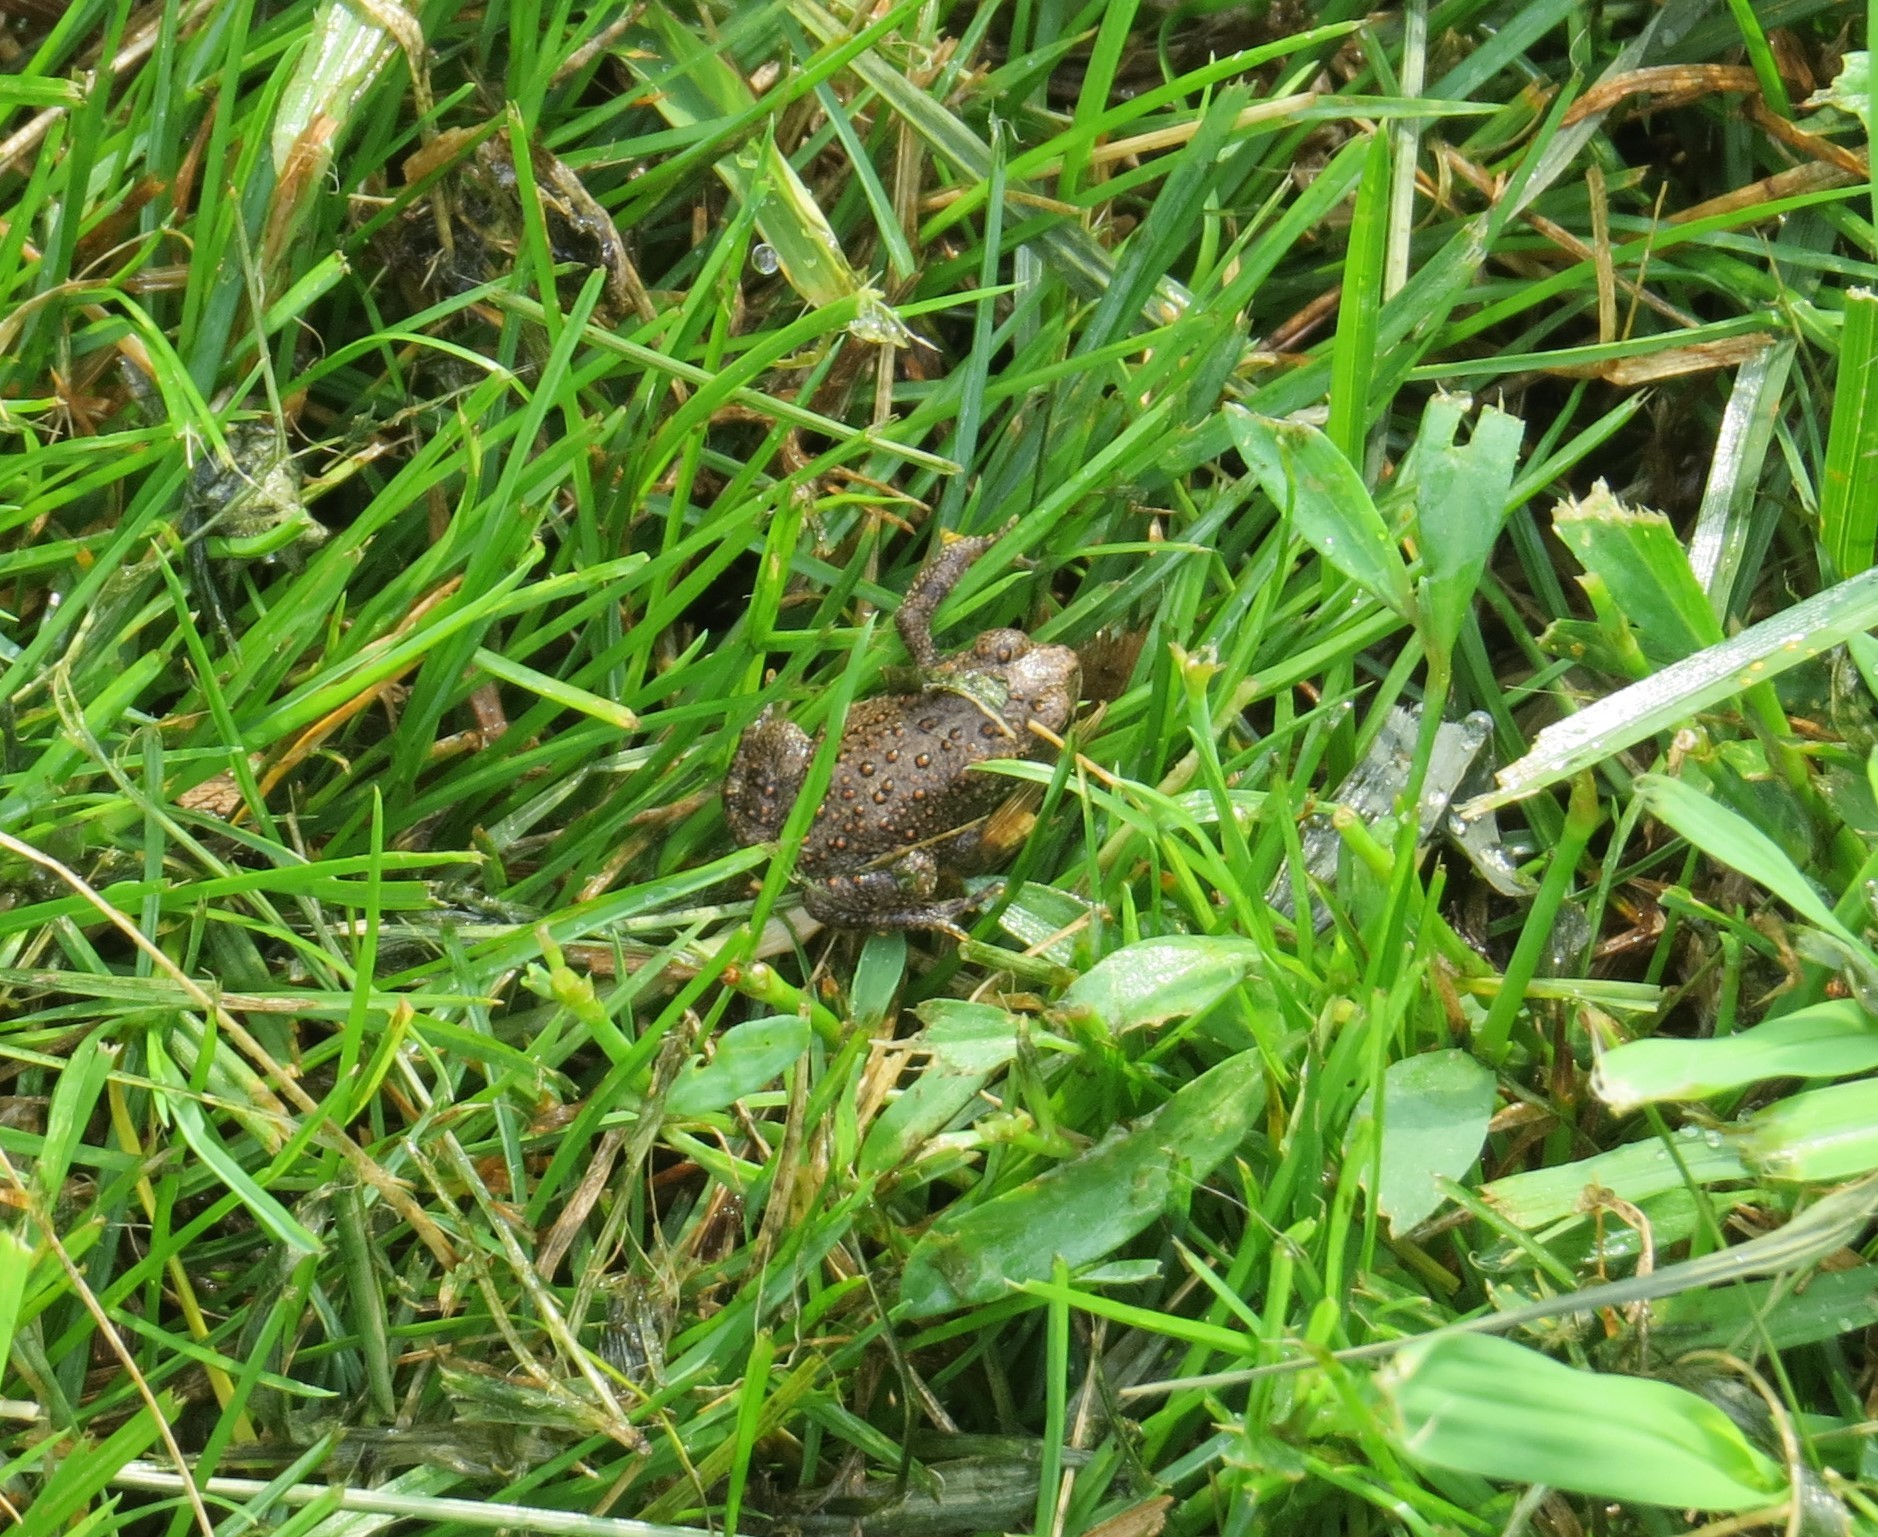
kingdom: Animalia
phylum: Chordata
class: Amphibia
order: Anura
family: Bufonidae
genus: Anaxyrus
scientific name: Anaxyrus americanus
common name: American toad
